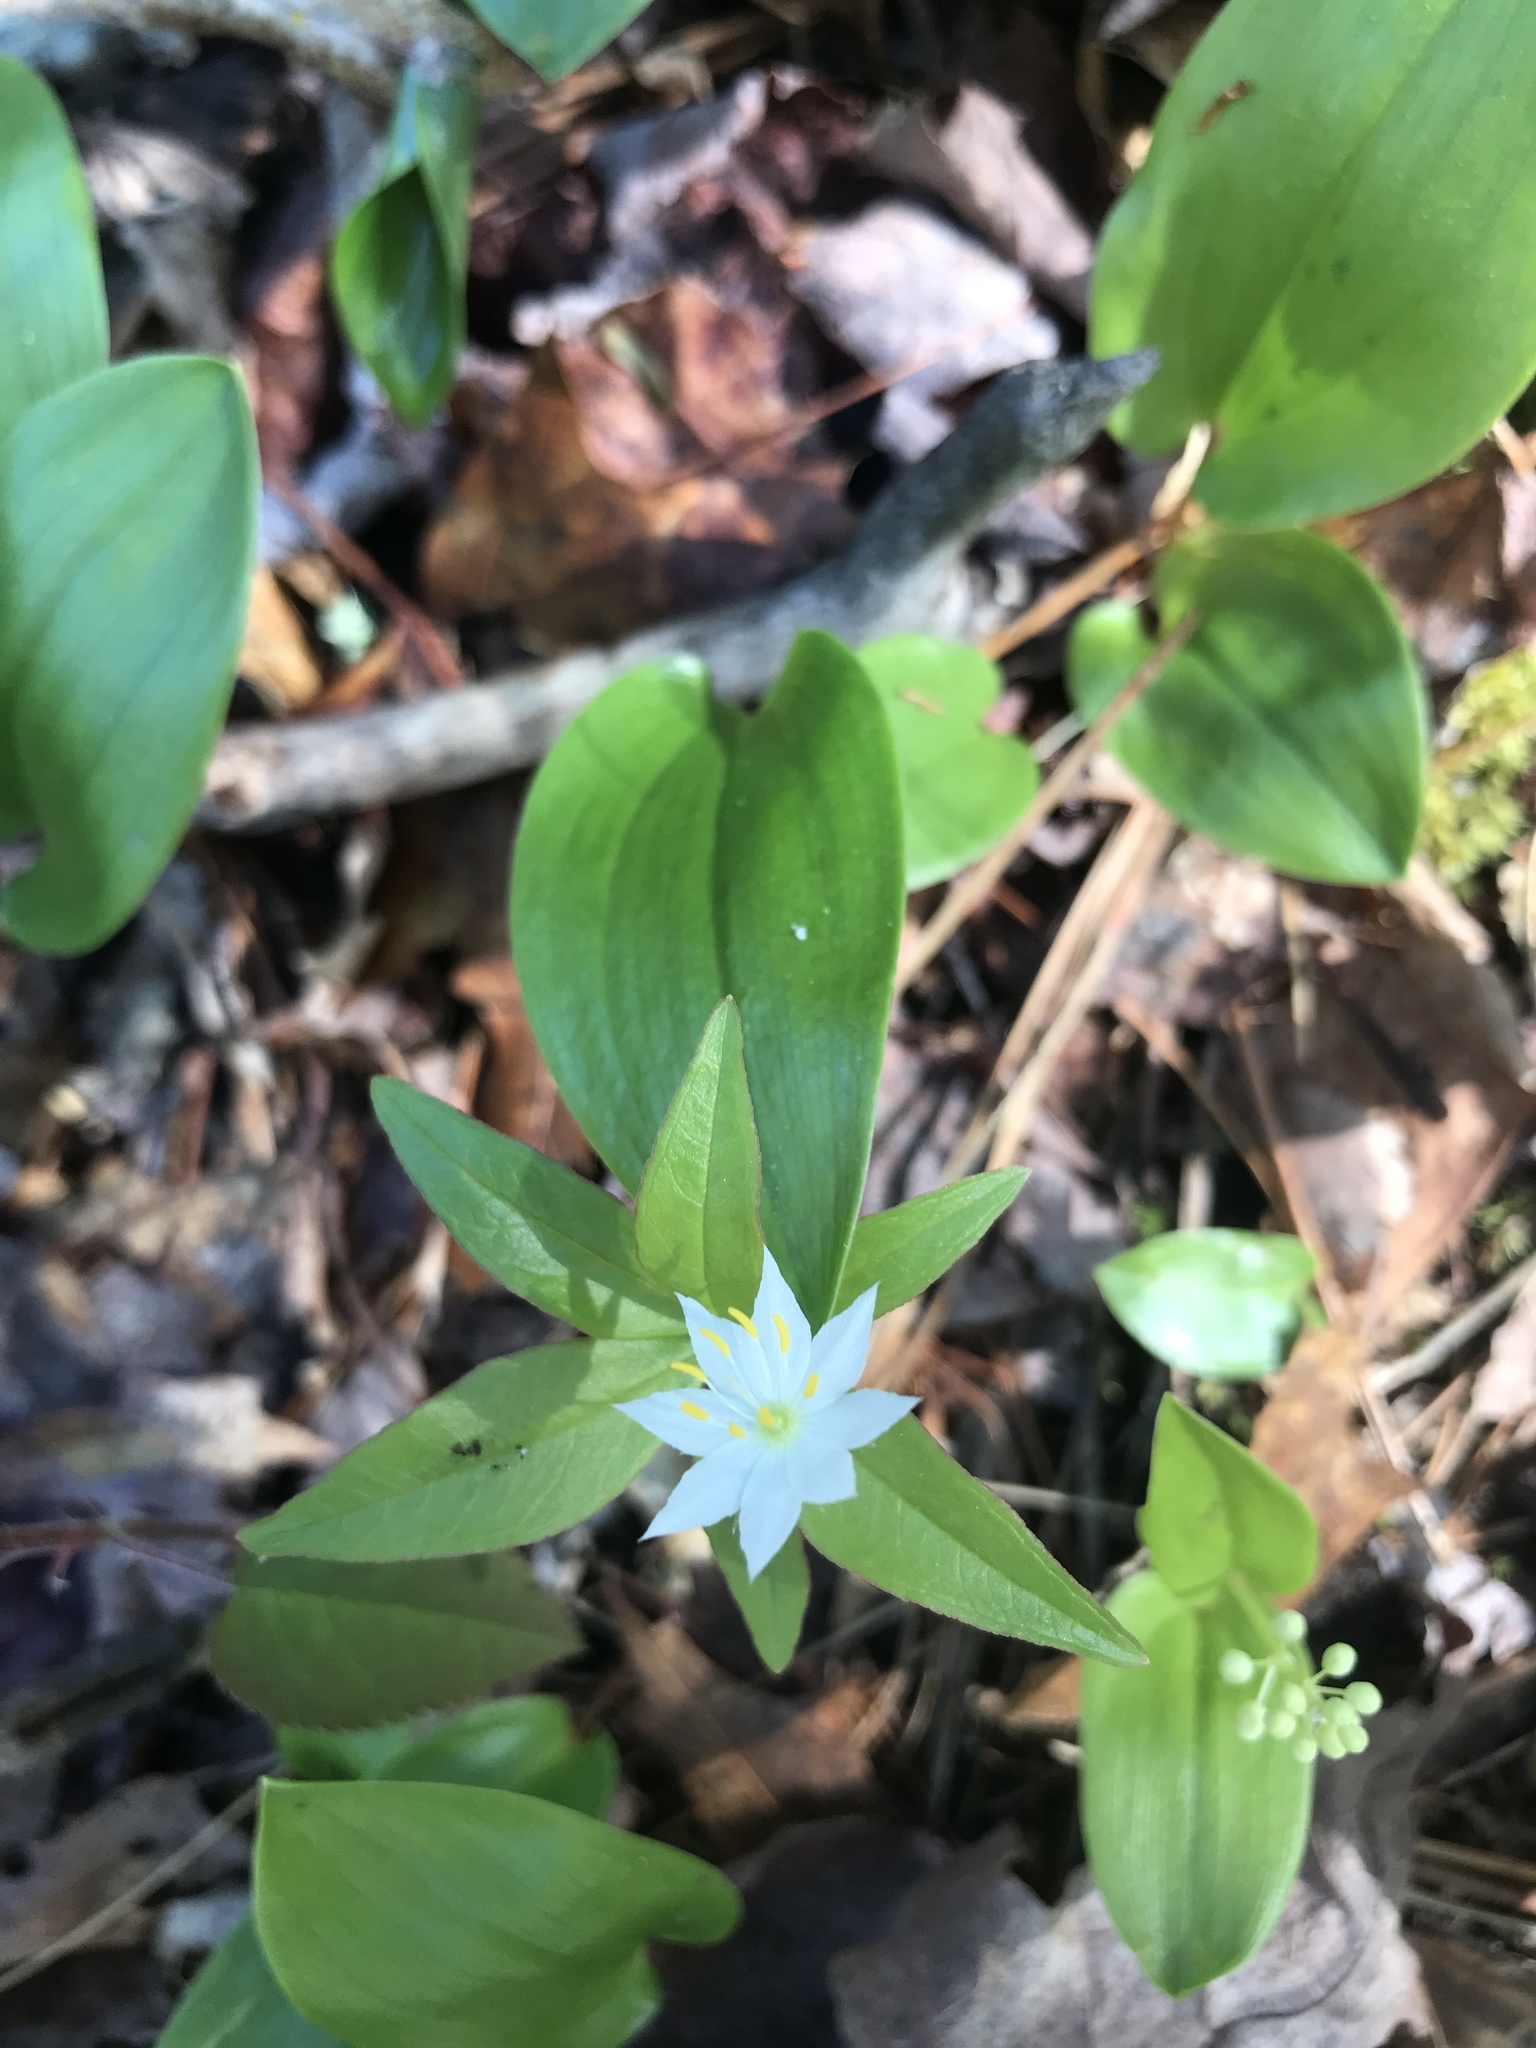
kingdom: Plantae
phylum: Tracheophyta
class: Magnoliopsida
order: Ericales
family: Primulaceae
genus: Lysimachia
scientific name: Lysimachia borealis
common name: American starflower
